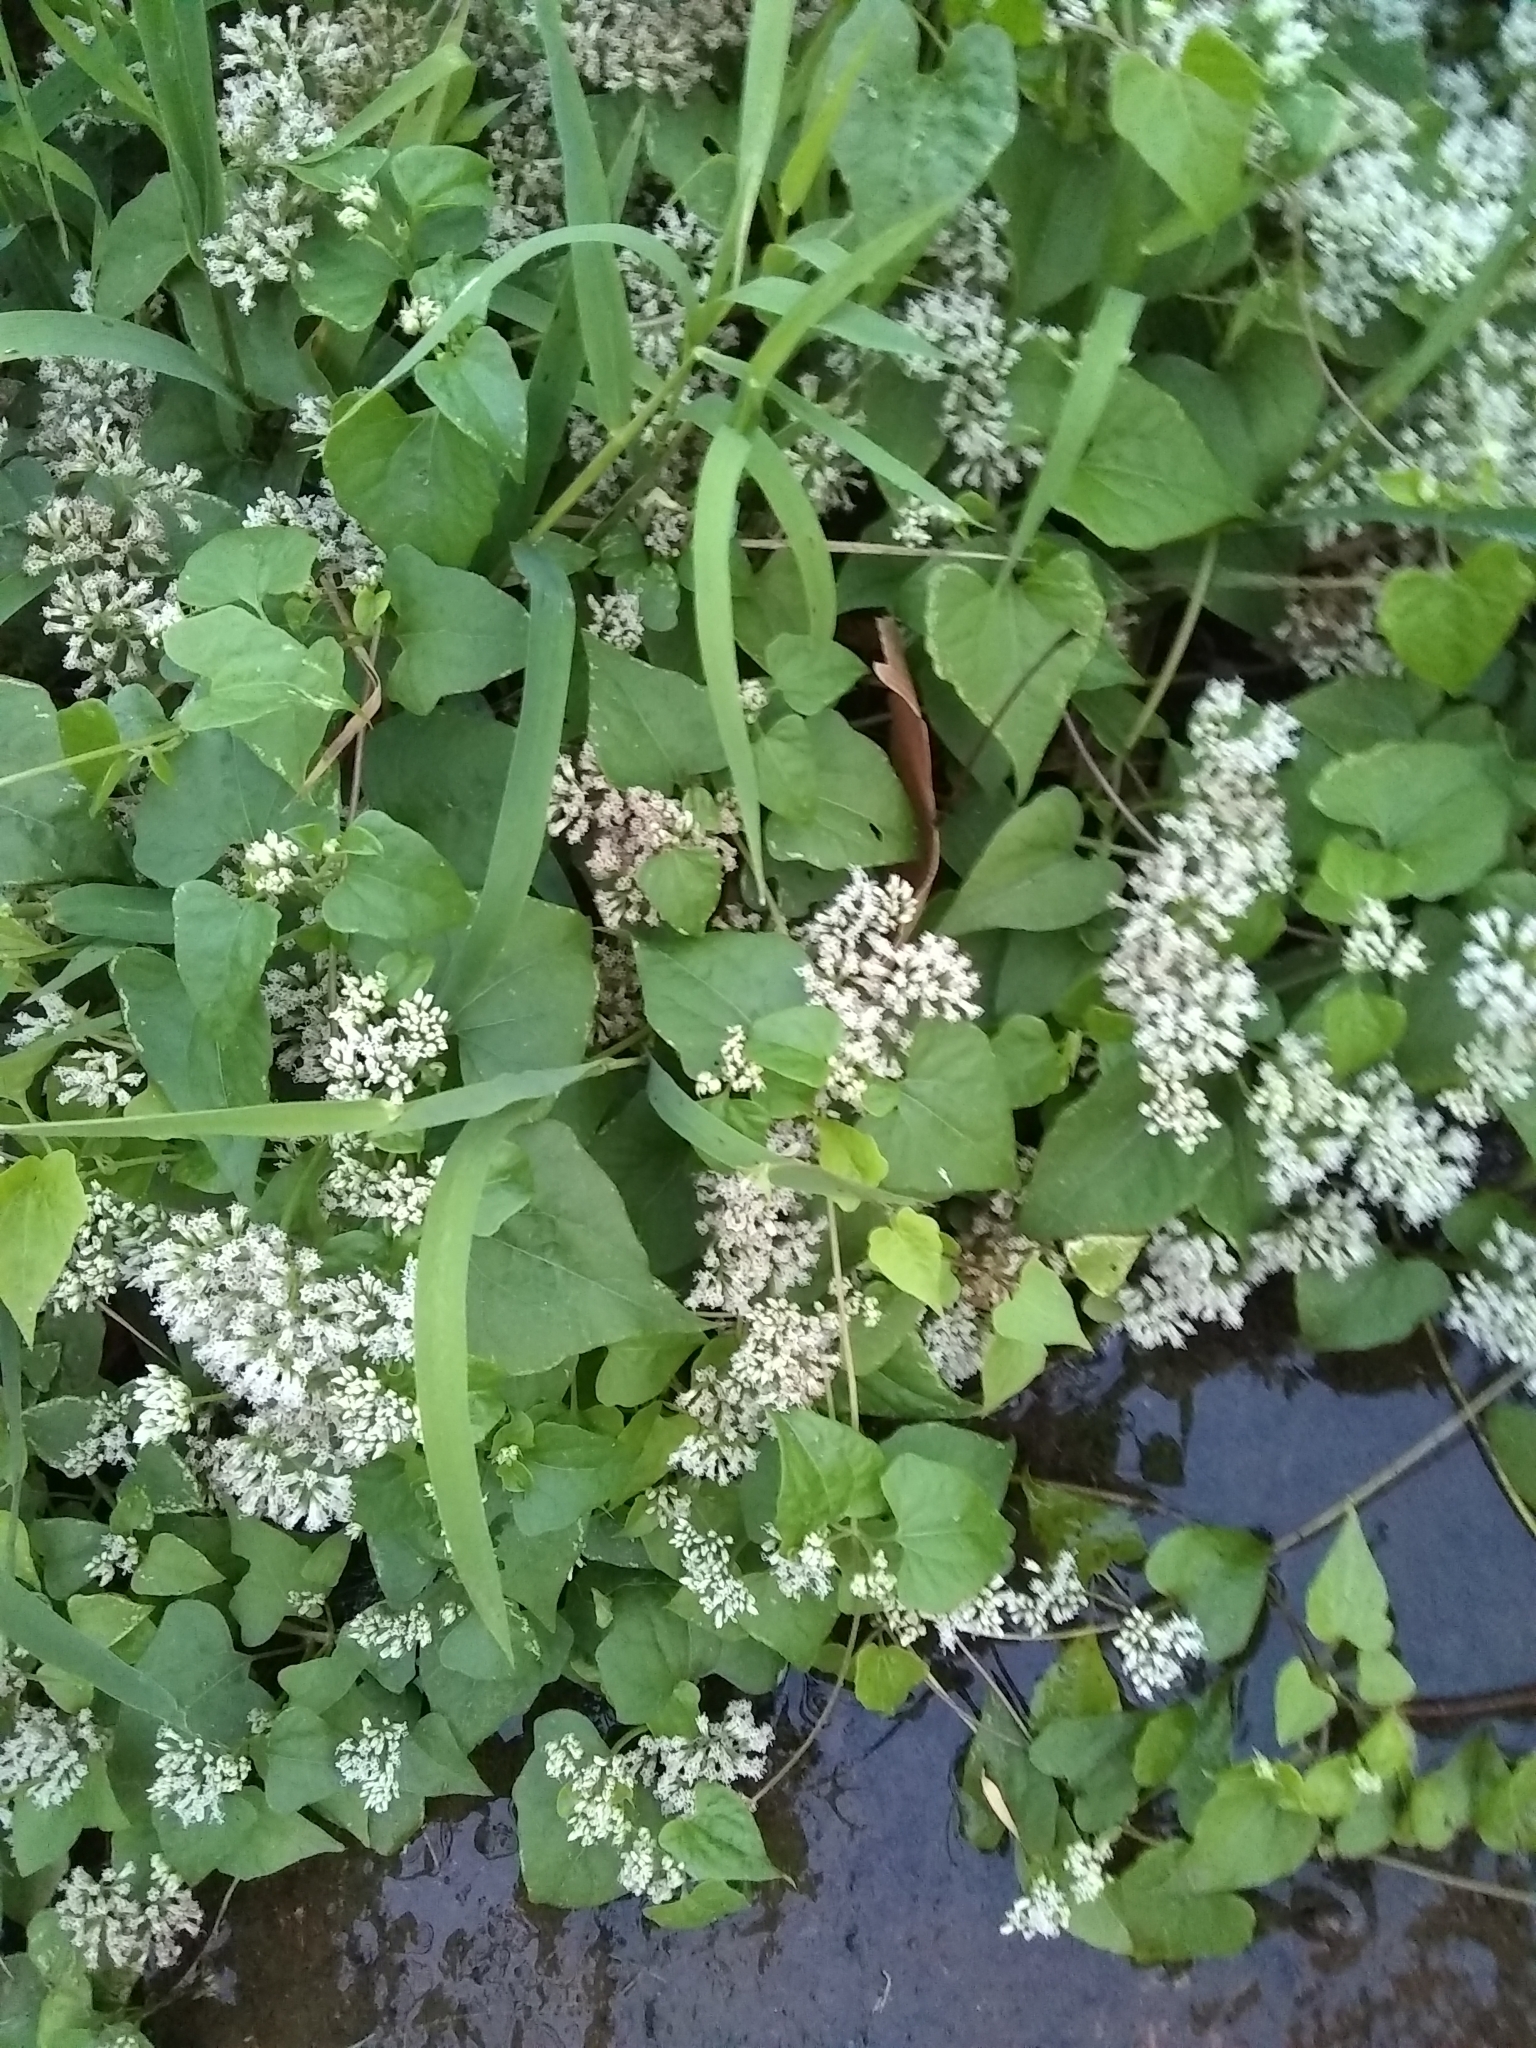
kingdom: Plantae
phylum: Tracheophyta
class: Magnoliopsida
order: Asterales
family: Asteraceae
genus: Mikania
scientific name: Mikania scandens
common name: Climbing hempvine
